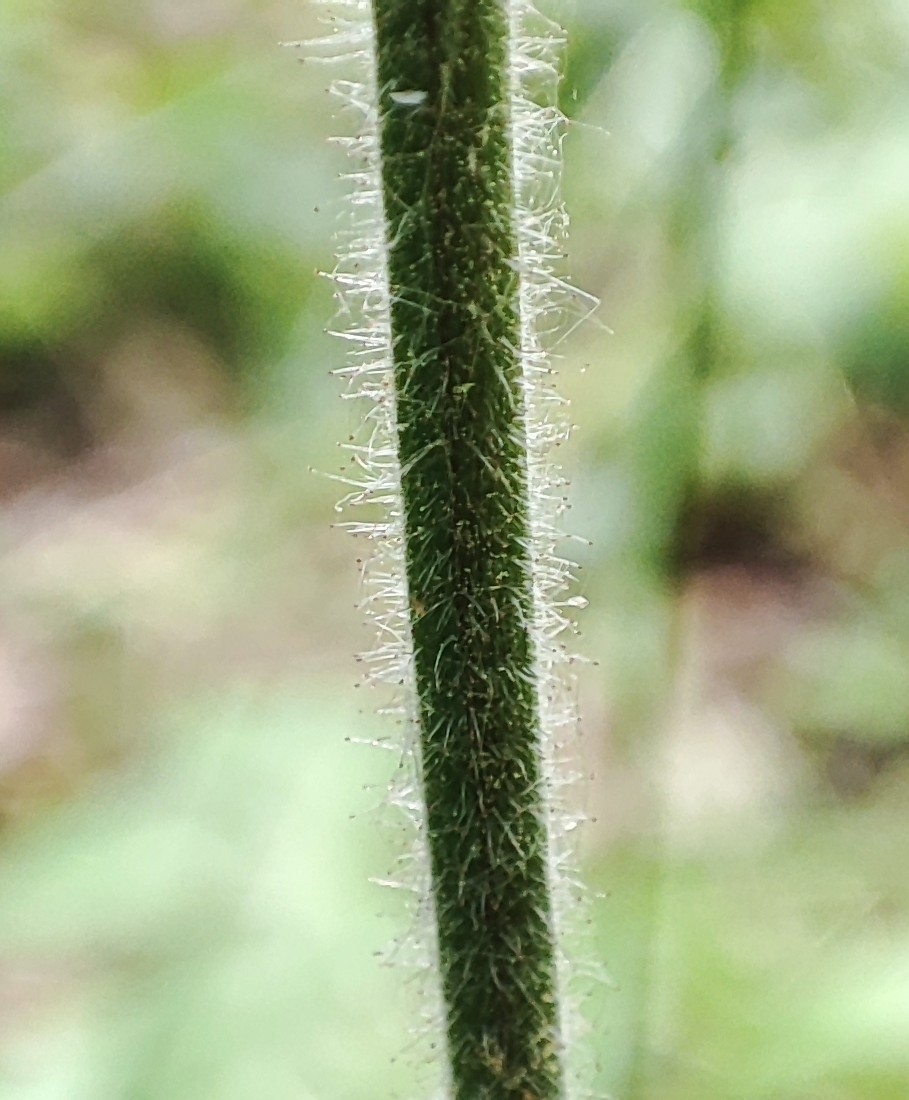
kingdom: Plantae
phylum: Tracheophyta
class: Magnoliopsida
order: Rosales
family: Rosaceae
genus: Geum
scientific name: Geum rivale
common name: Water avens
